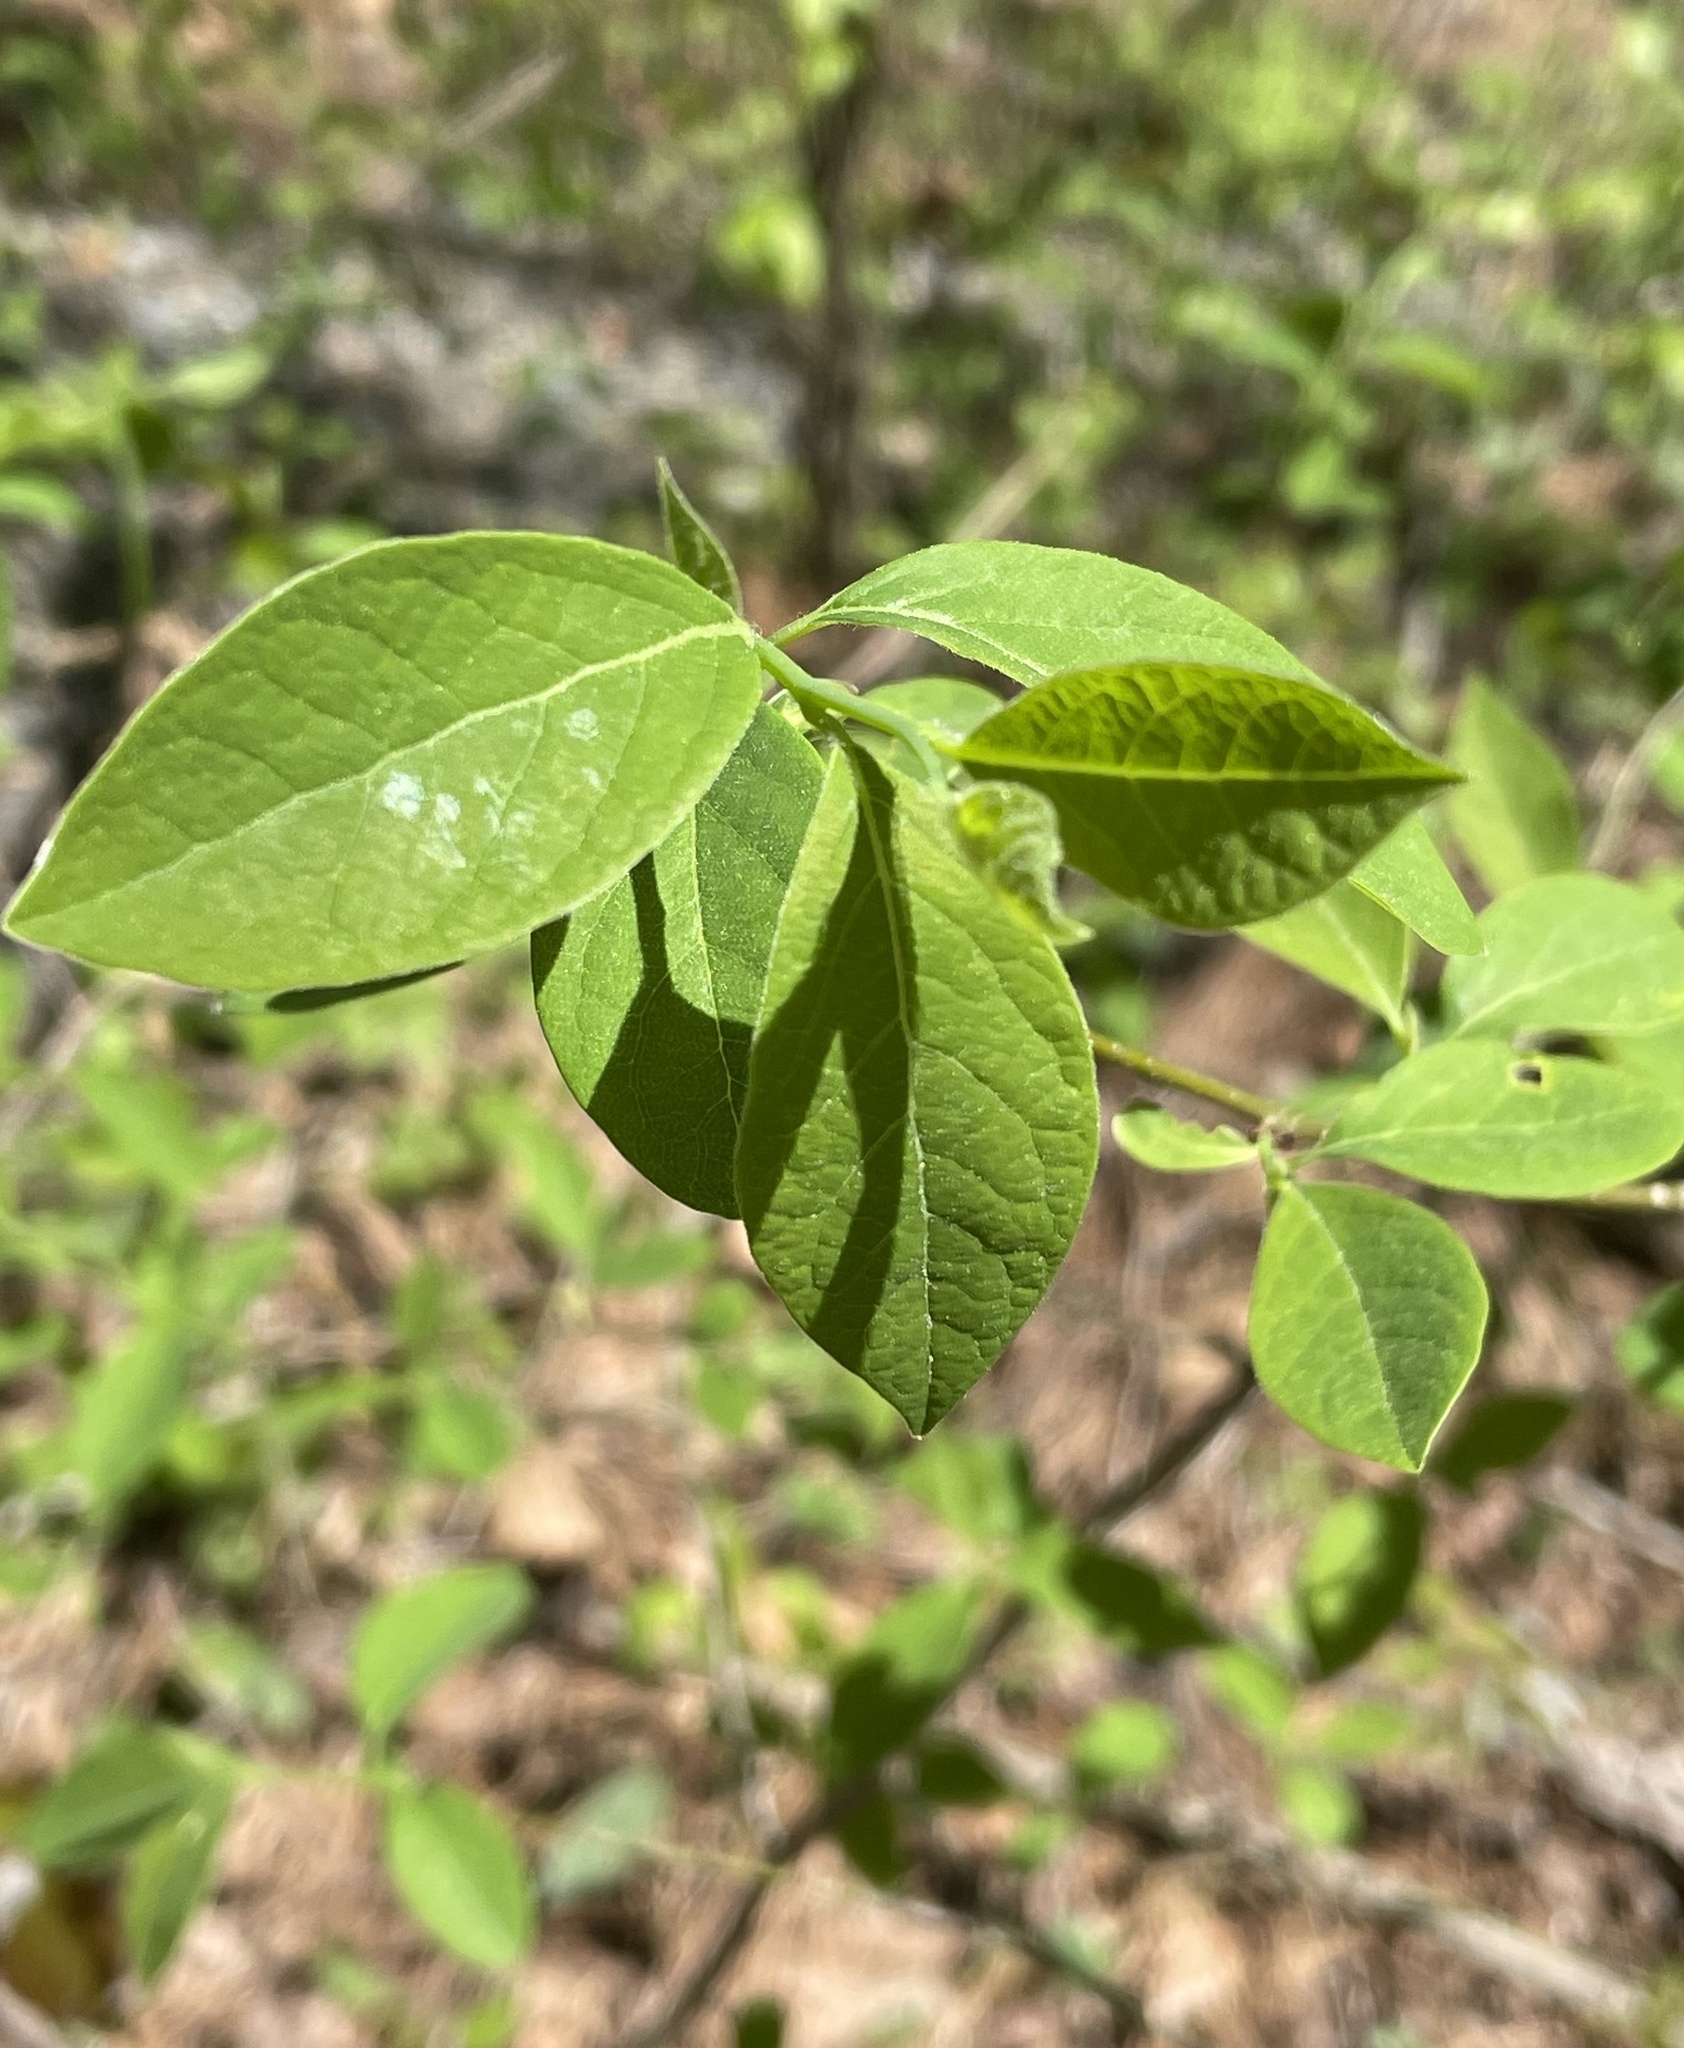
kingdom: Plantae
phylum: Tracheophyta
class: Magnoliopsida
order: Laurales
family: Lauraceae
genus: Lindera
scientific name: Lindera benzoin
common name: Spicebush
